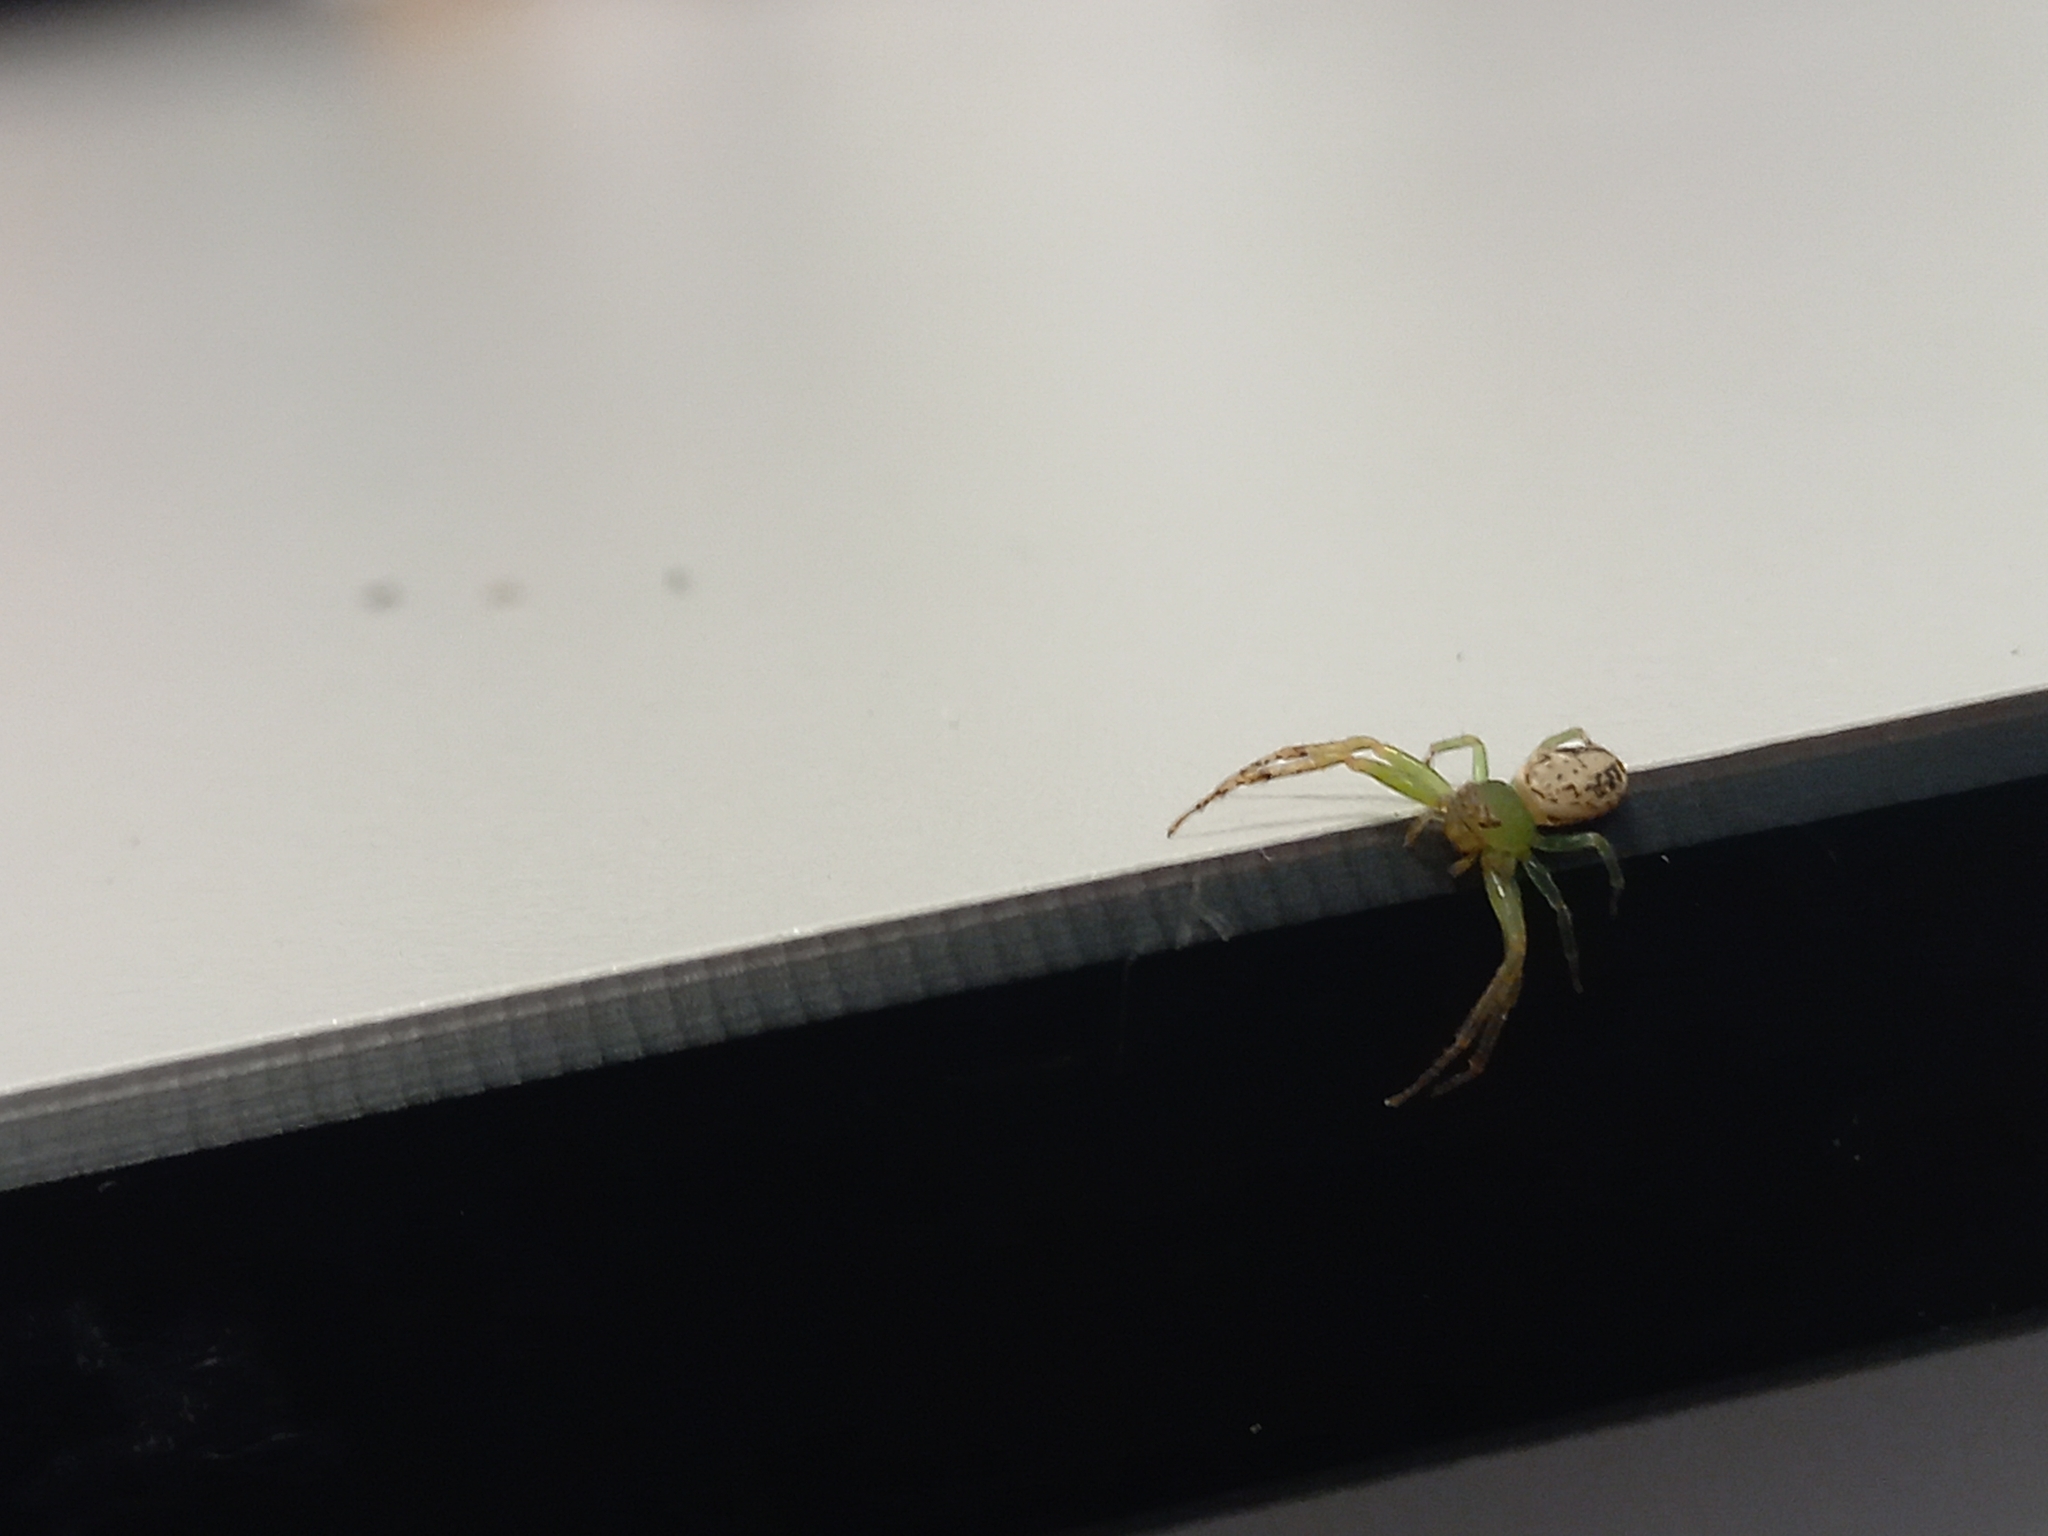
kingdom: Animalia
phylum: Arthropoda
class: Arachnida
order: Araneae
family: Thomisidae
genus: Diaea
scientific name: Diaea ambara
